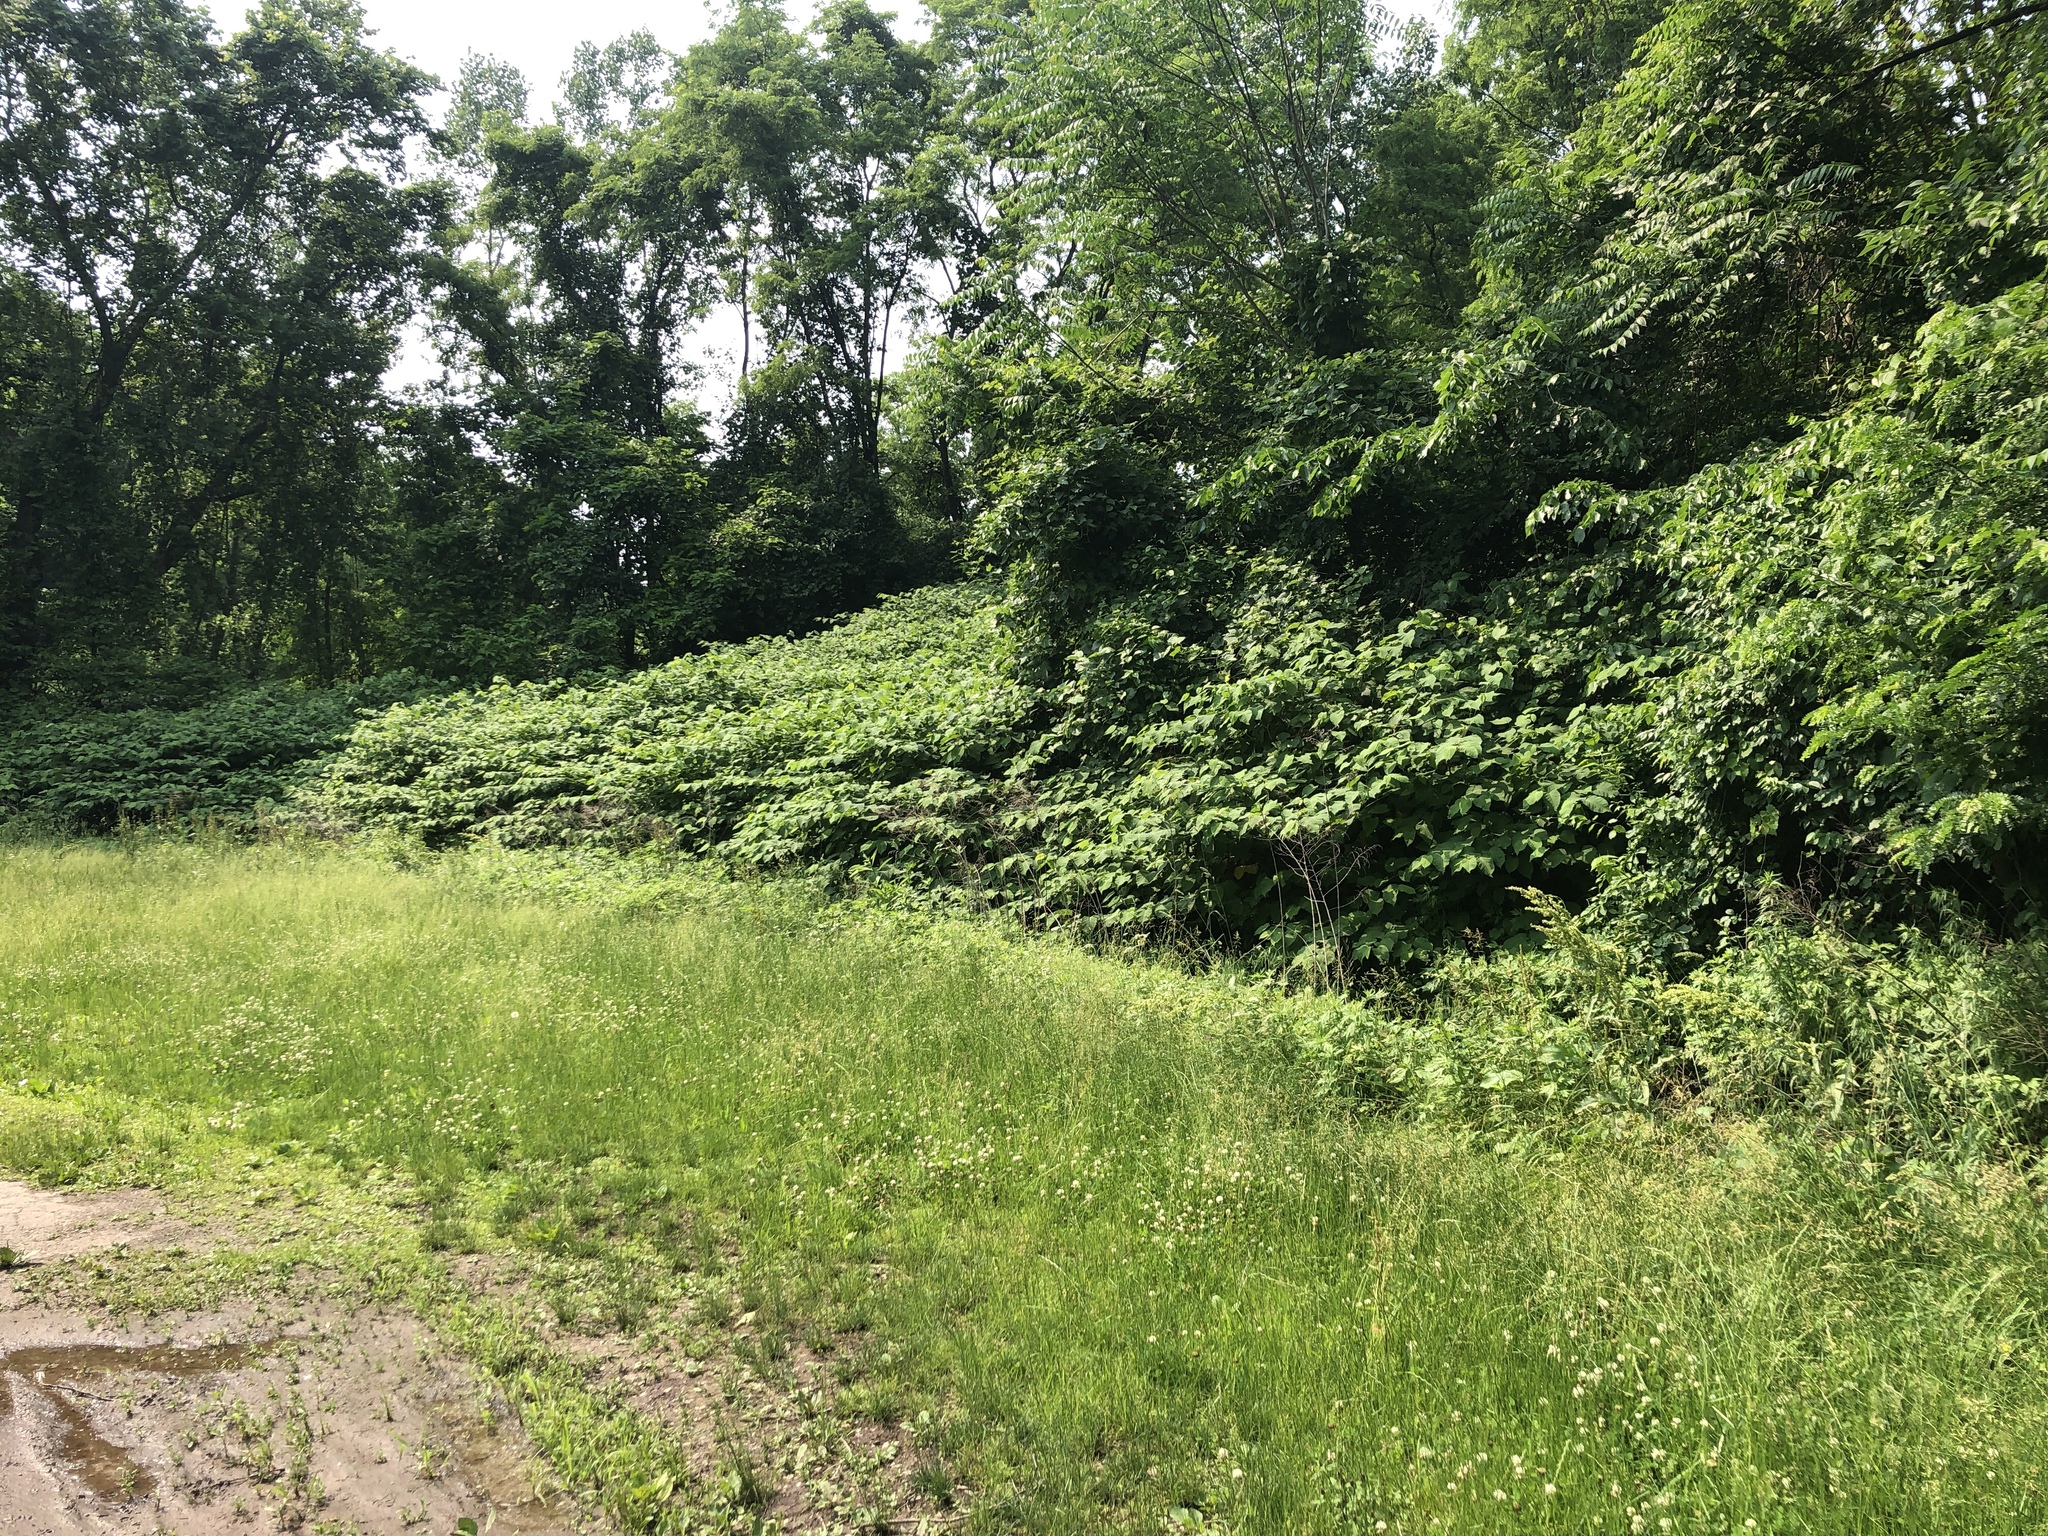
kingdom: Plantae
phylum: Tracheophyta
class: Magnoliopsida
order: Caryophyllales
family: Polygonaceae
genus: Reynoutria
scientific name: Reynoutria japonica
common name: Japanese knotweed
